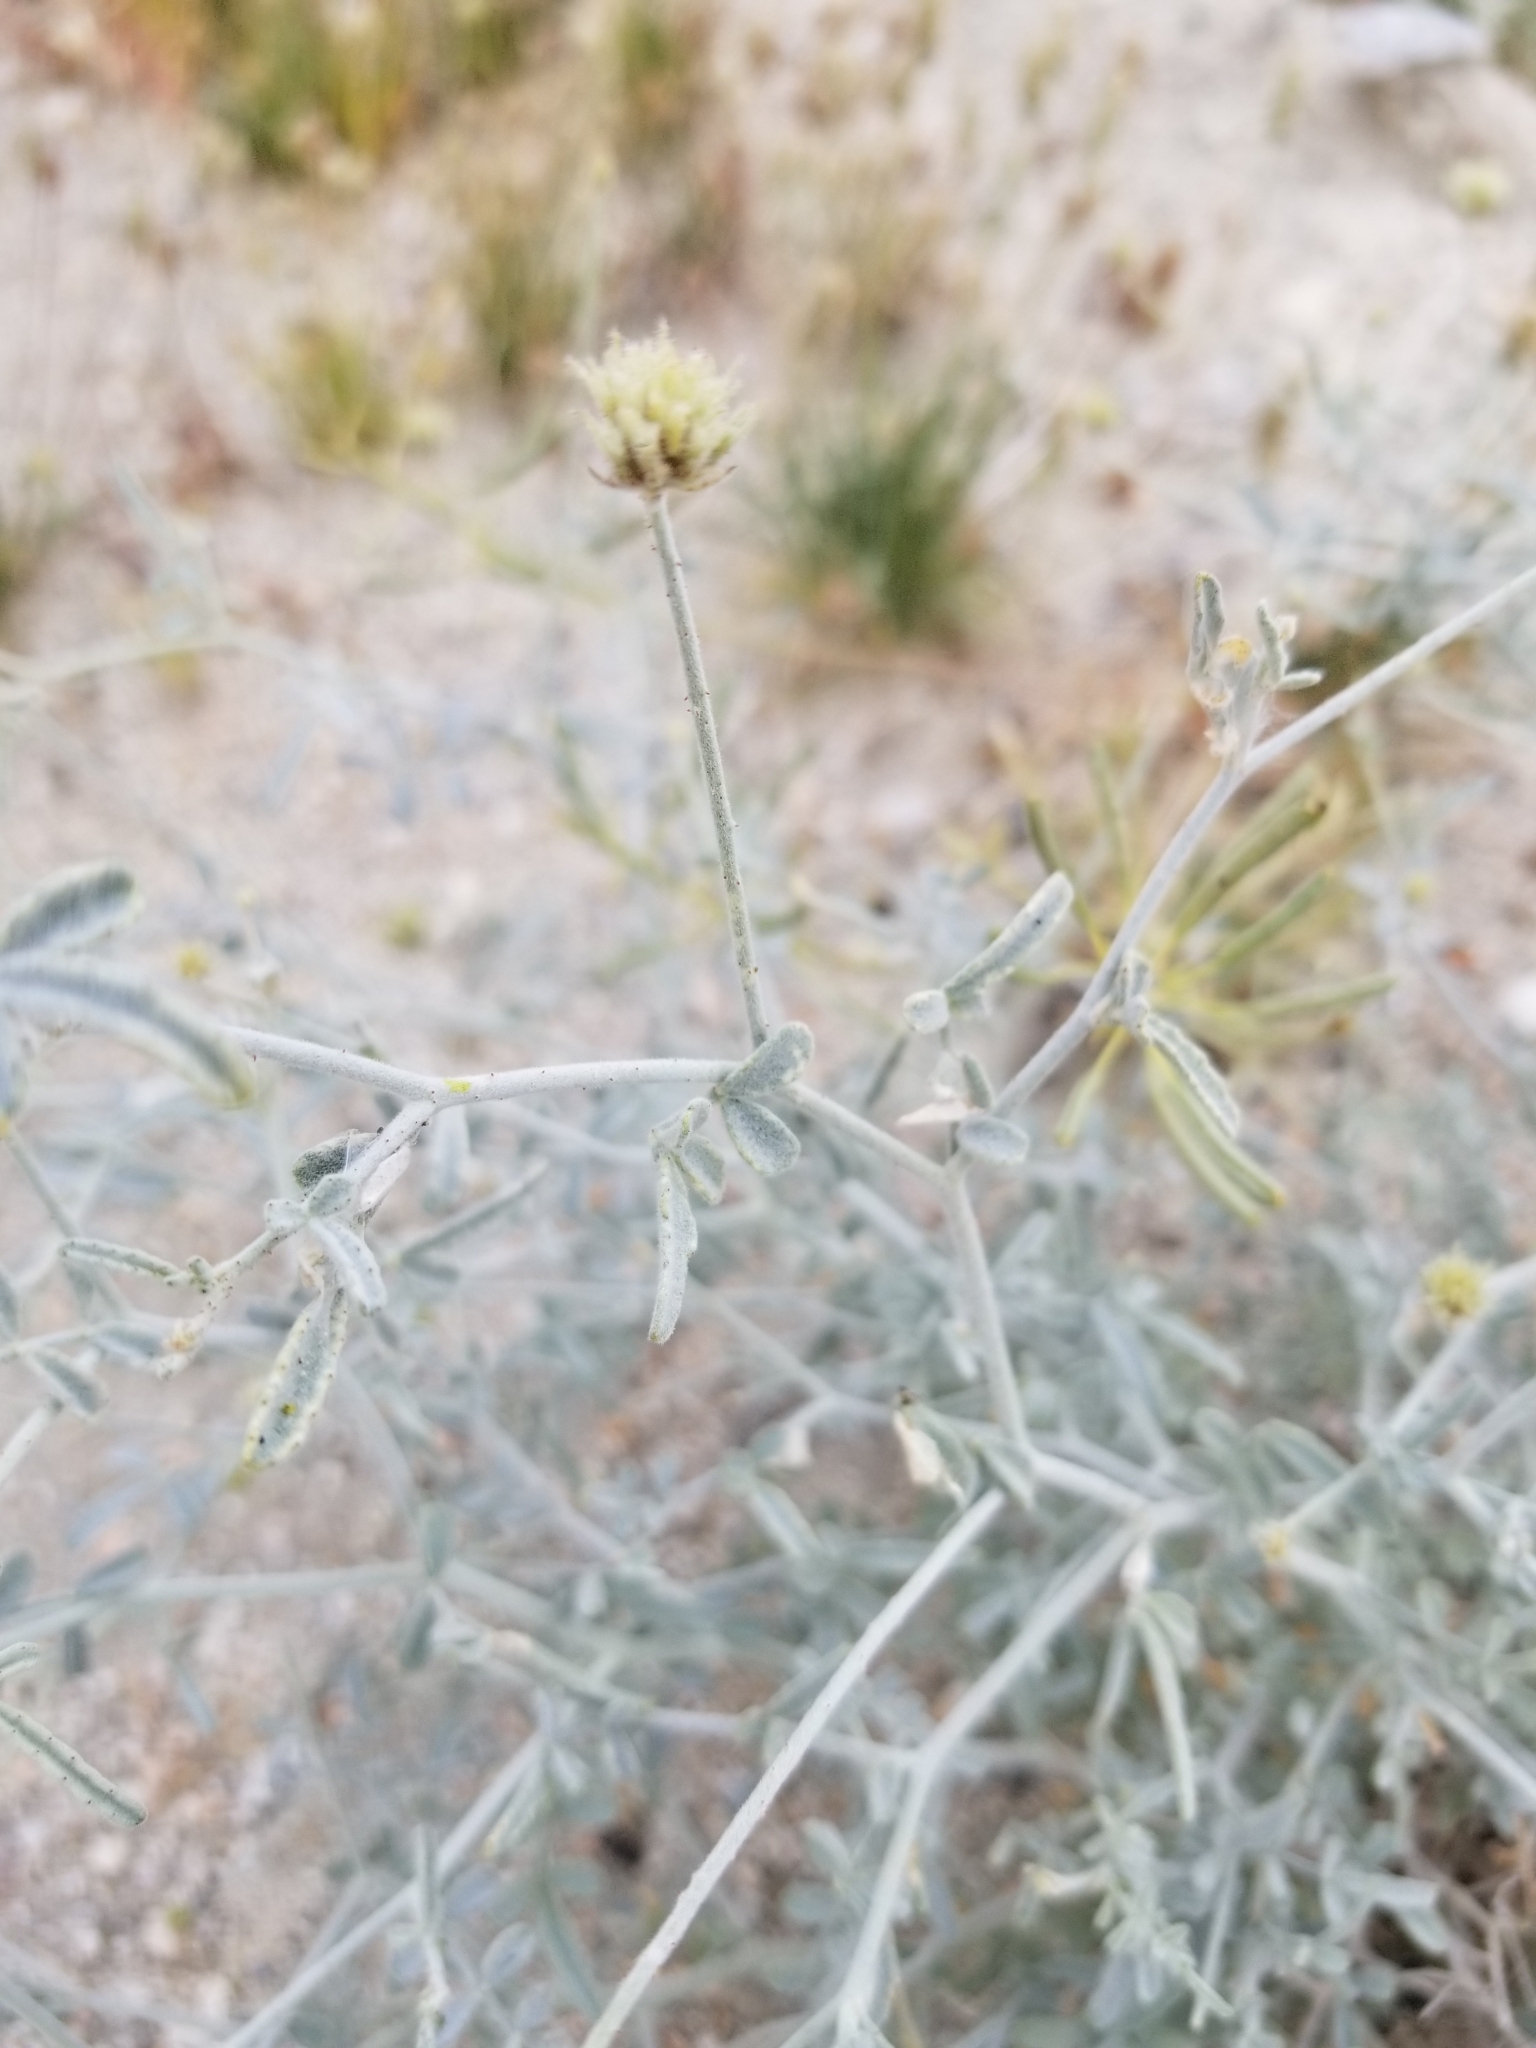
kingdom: Plantae
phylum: Tracheophyta
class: Magnoliopsida
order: Fabales
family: Fabaceae
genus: Psorothamnus
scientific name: Psorothamnus emoryi
